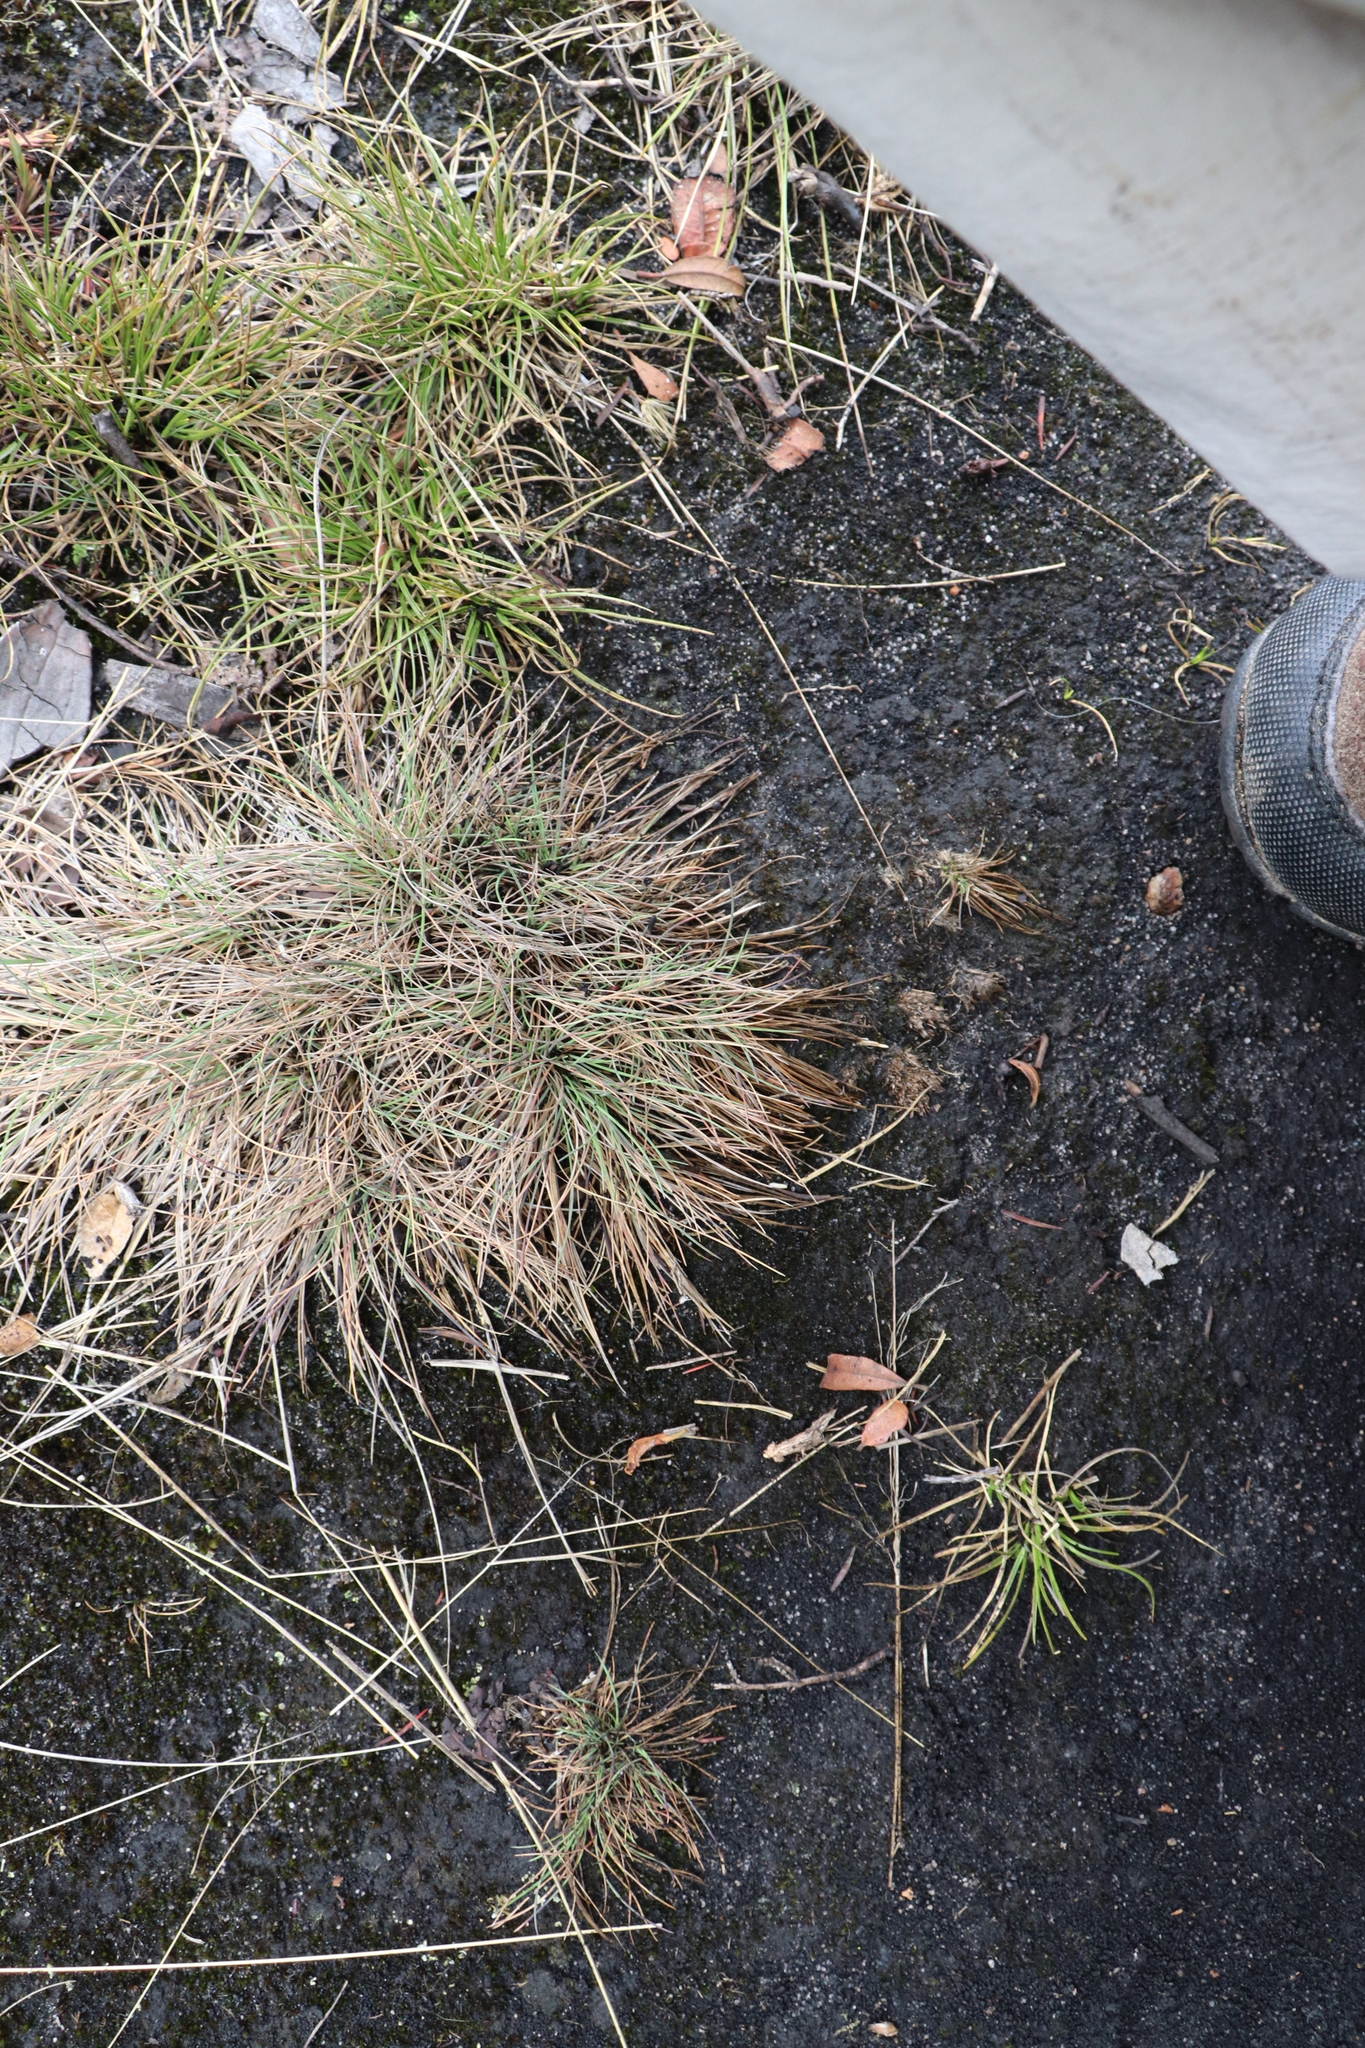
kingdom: Plantae
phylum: Tracheophyta
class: Liliopsida
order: Poales
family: Poaceae
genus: Corynephorus
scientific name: Corynephorus canescens
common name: Grey hair-grass
